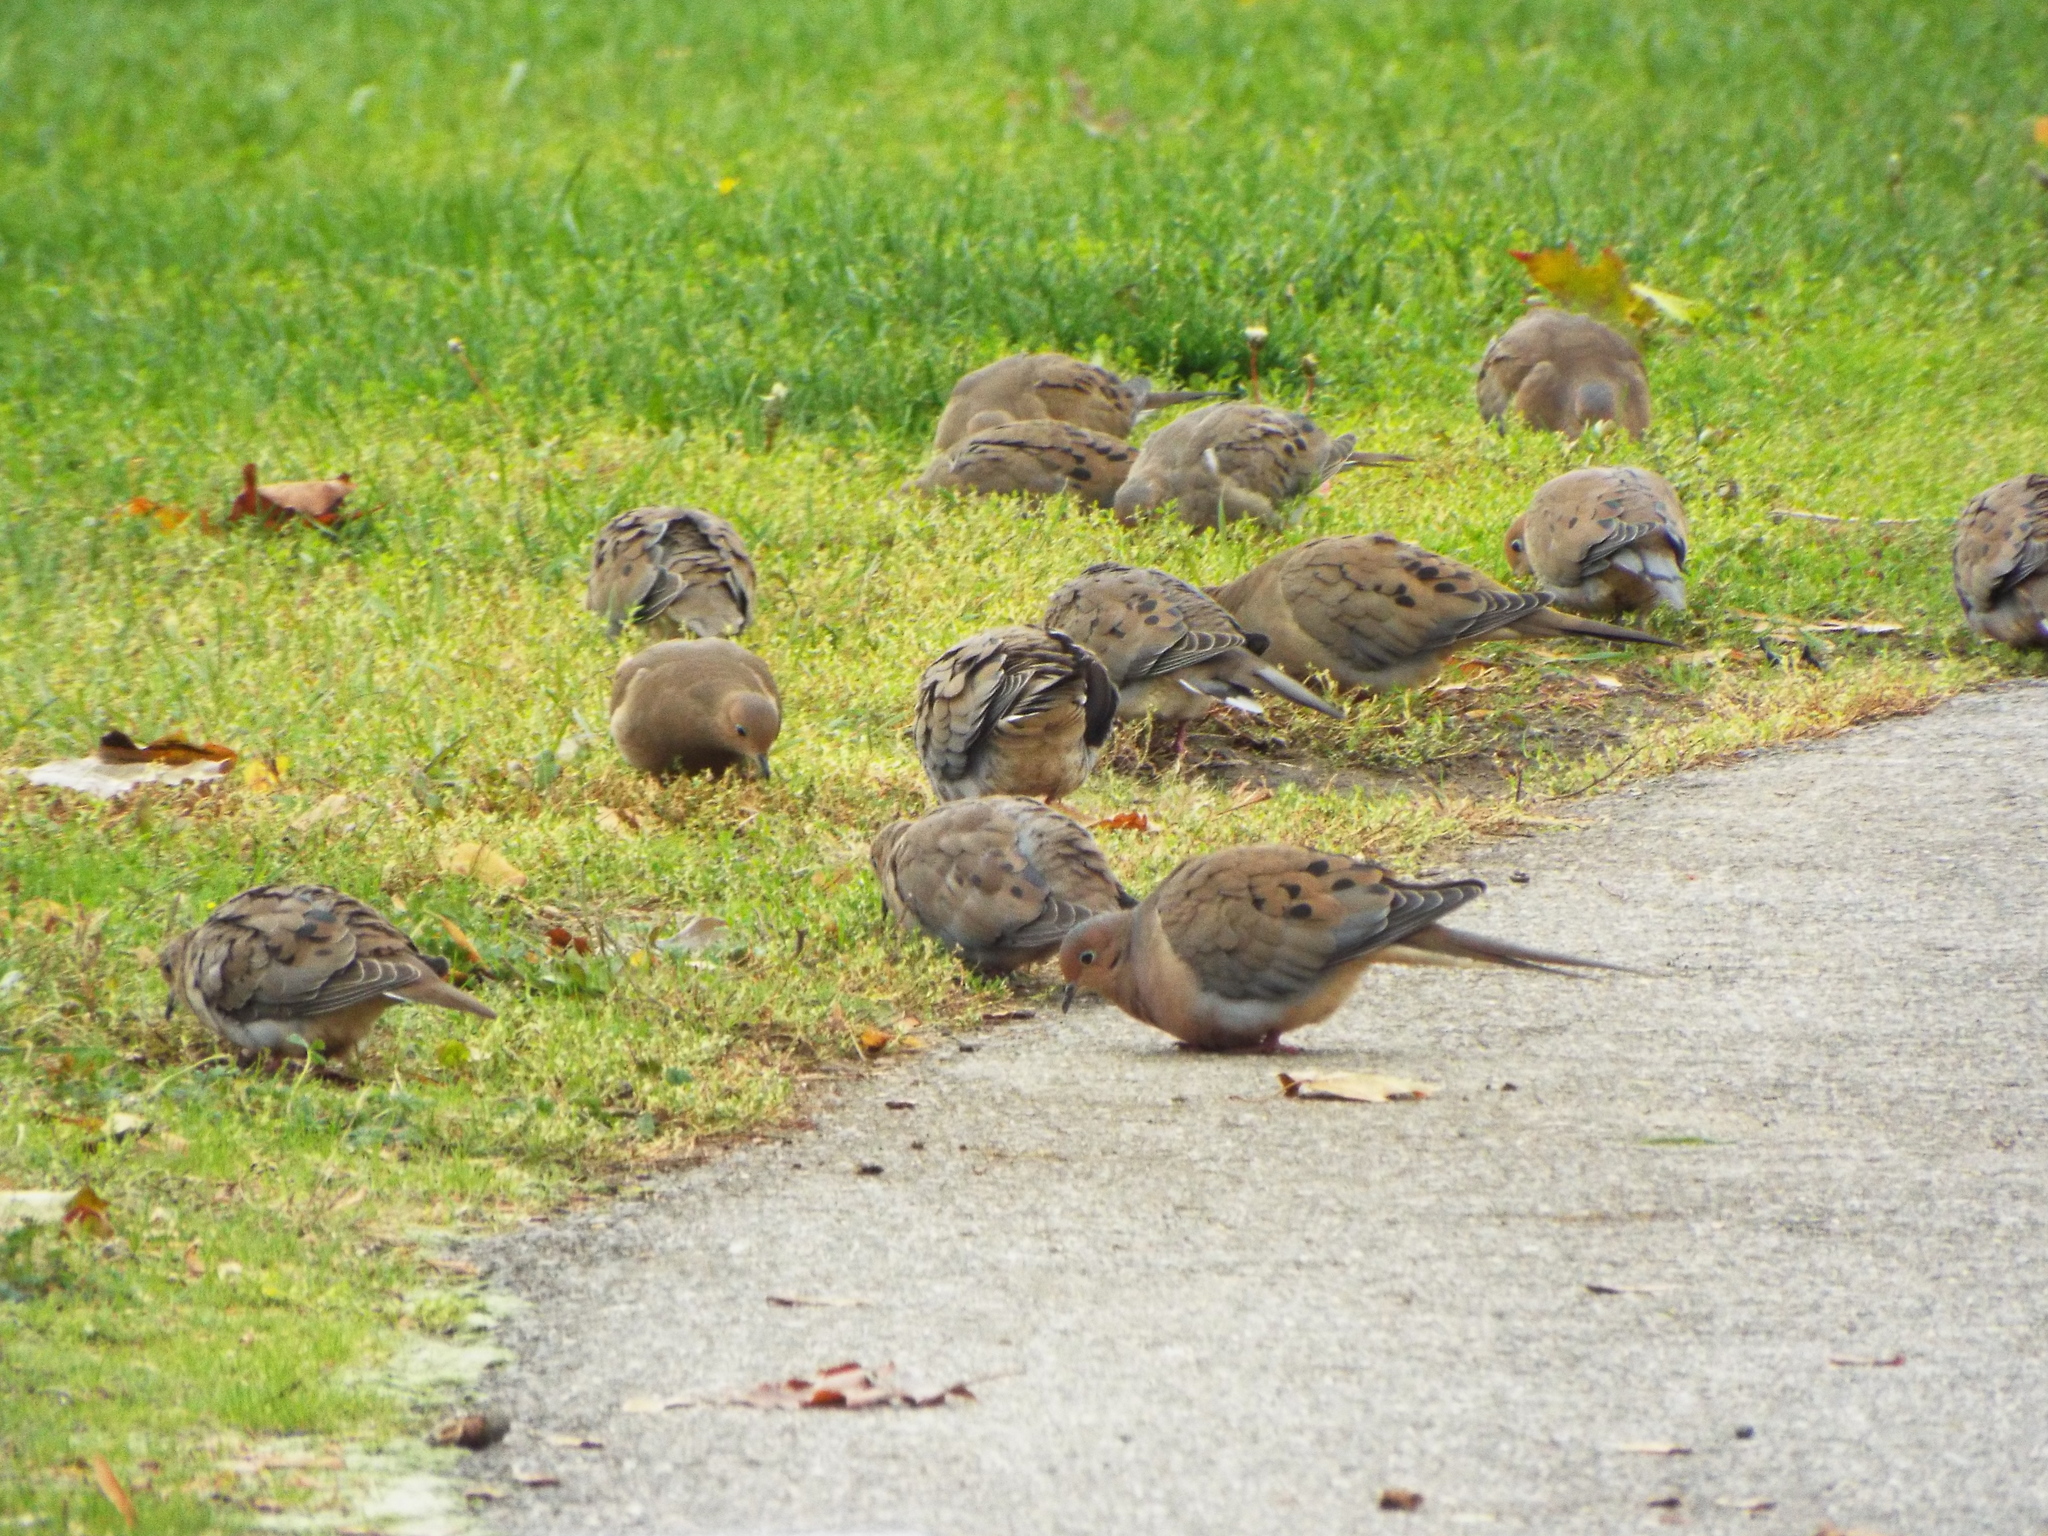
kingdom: Animalia
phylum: Chordata
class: Aves
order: Columbiformes
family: Columbidae
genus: Zenaida
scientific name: Zenaida macroura
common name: Mourning dove
